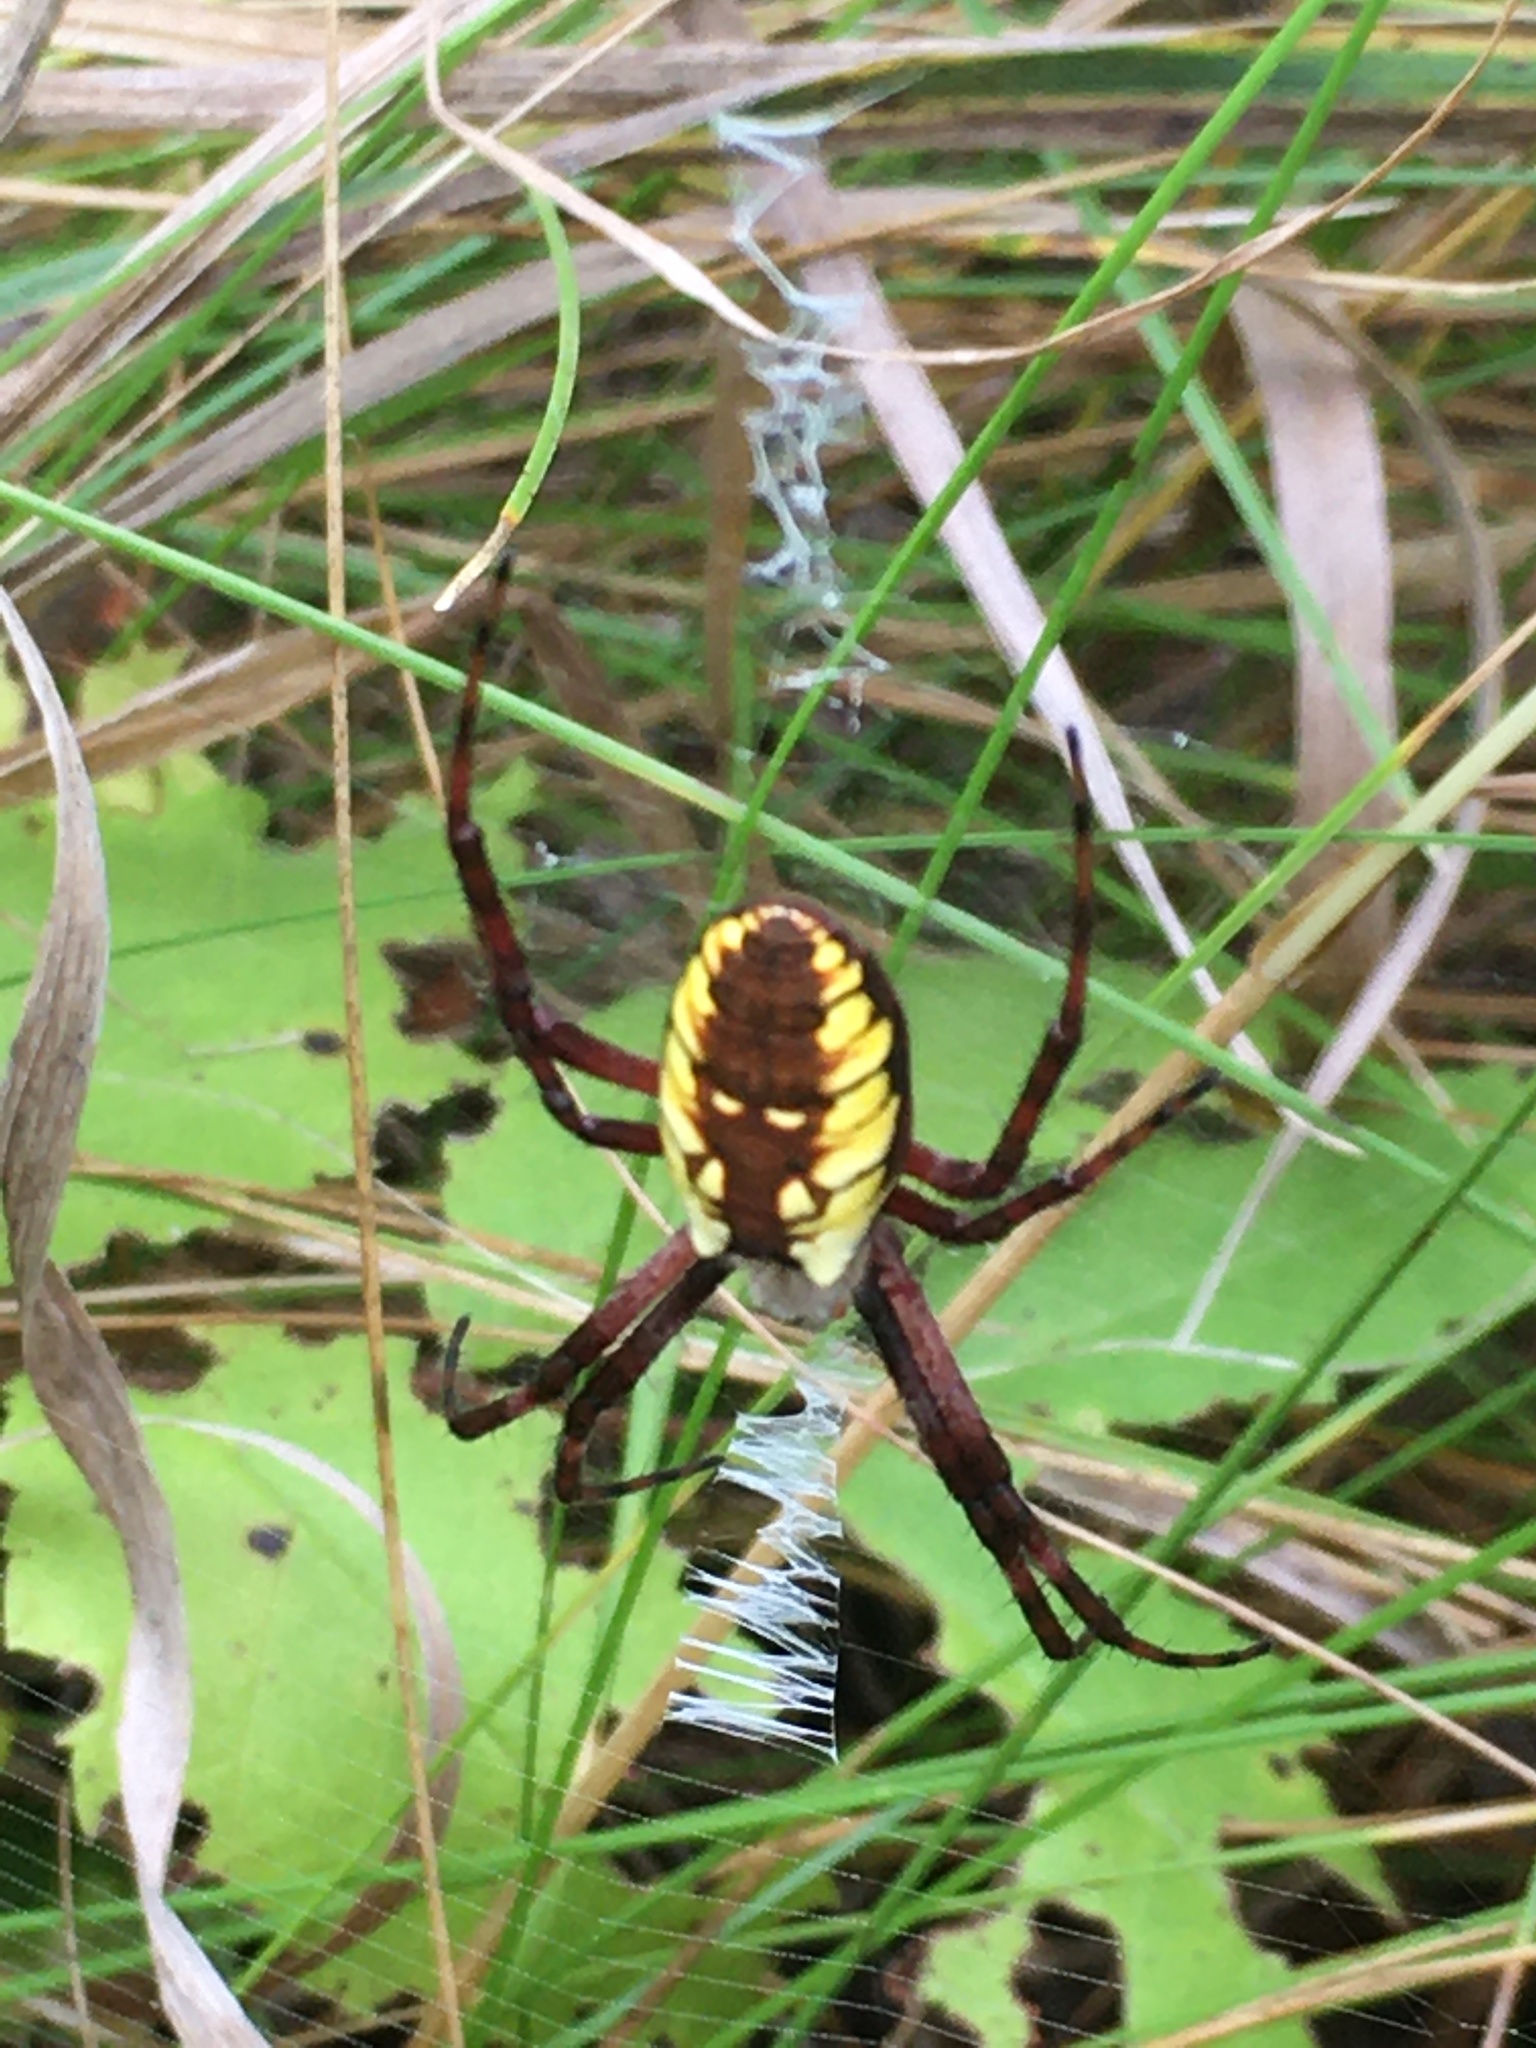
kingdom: Animalia
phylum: Arthropoda
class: Arachnida
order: Araneae
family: Araneidae
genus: Argiope
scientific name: Argiope aurantia
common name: Orb weavers
